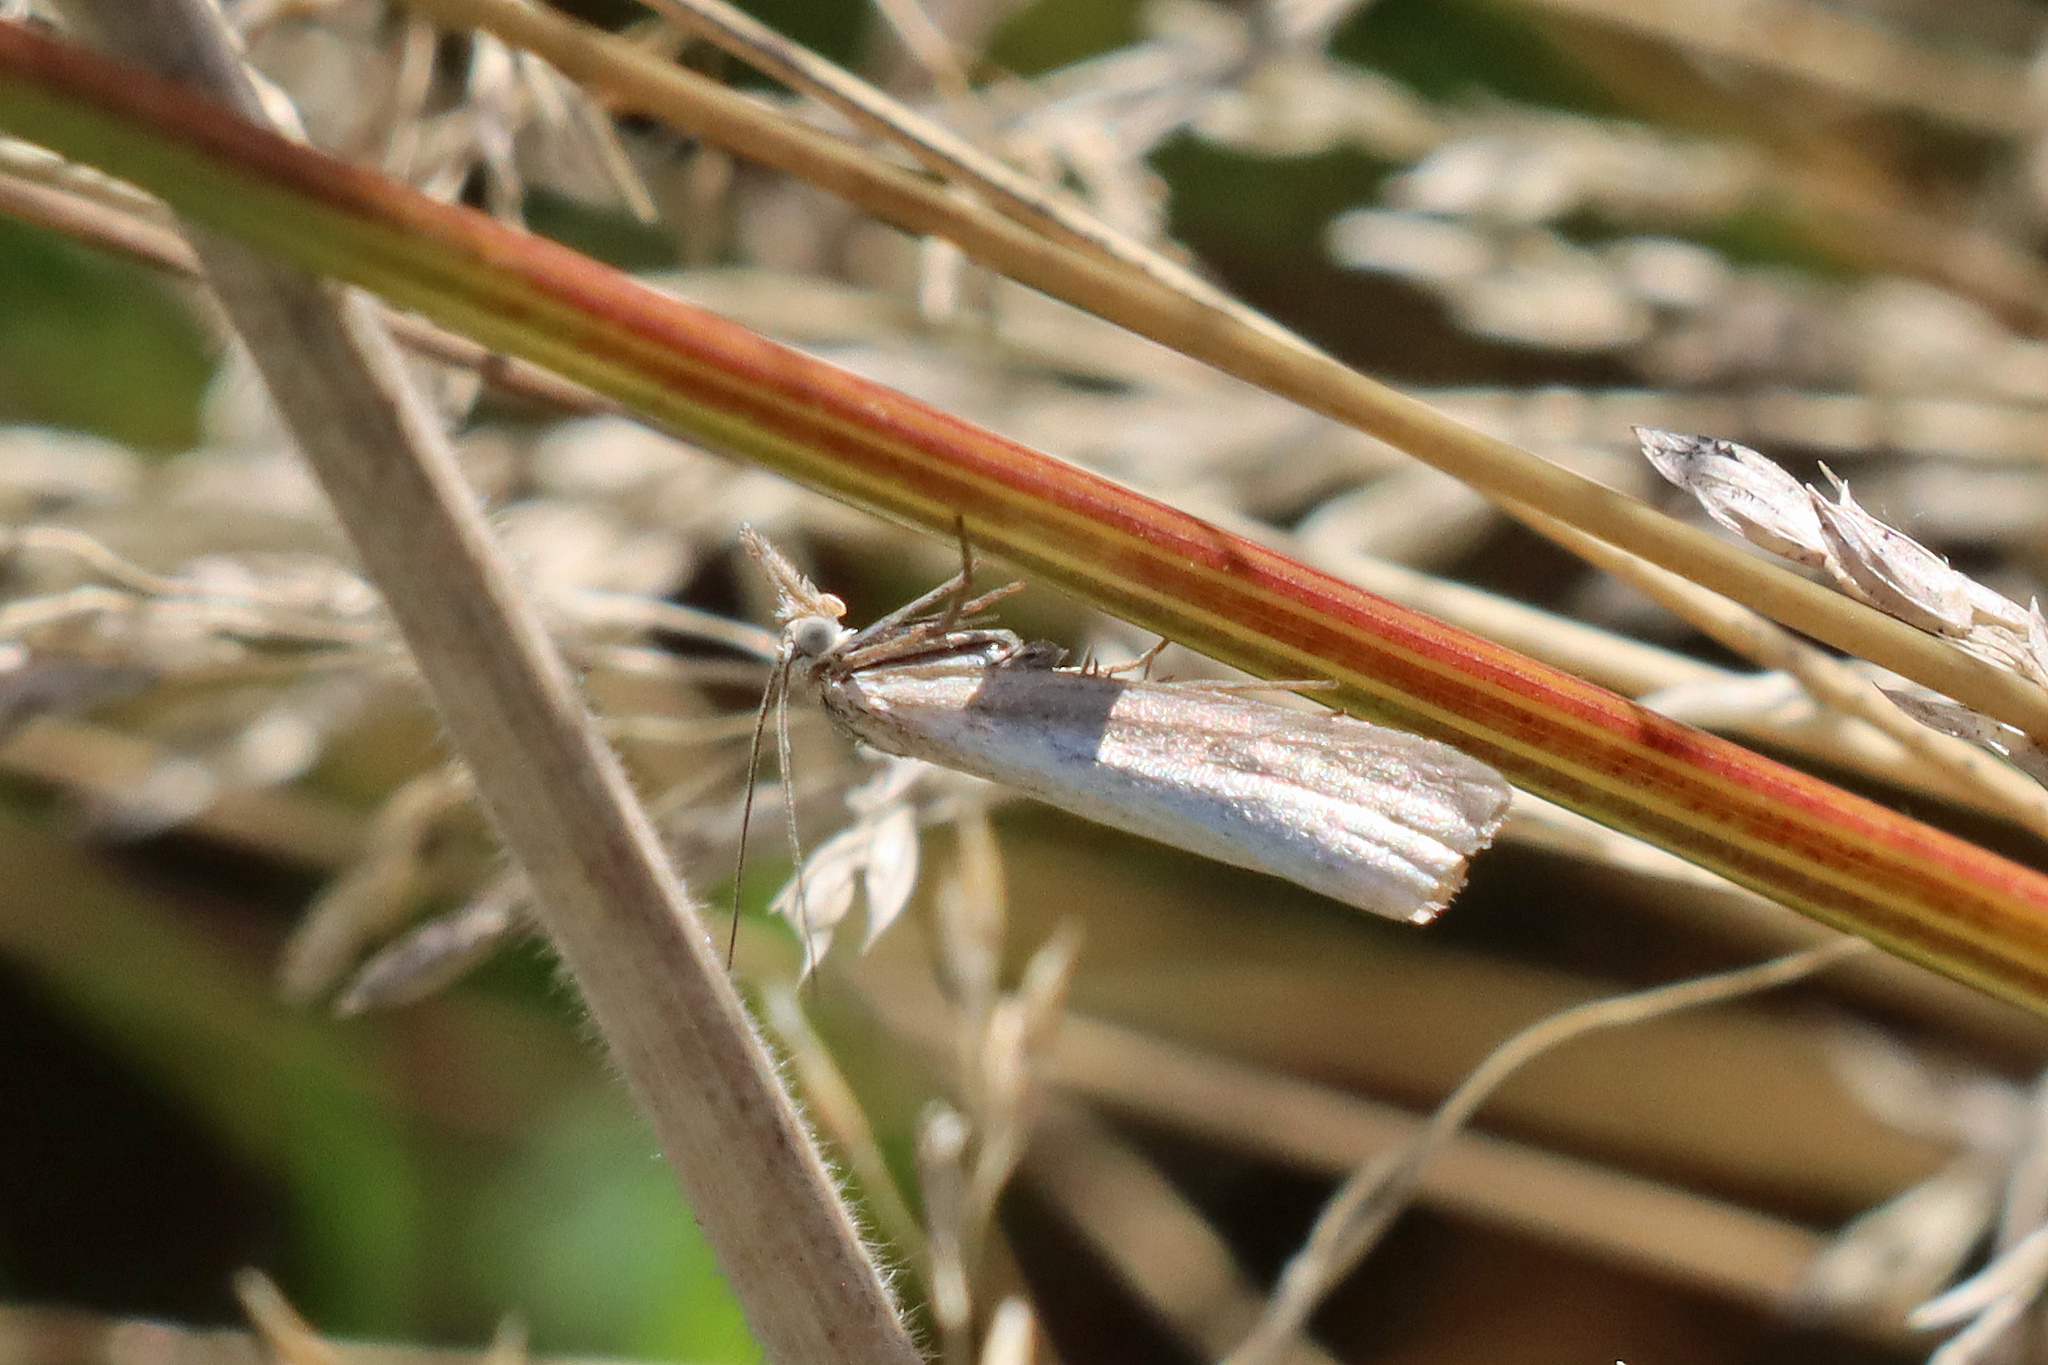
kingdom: Animalia
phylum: Arthropoda
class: Insecta
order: Lepidoptera
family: Crambidae
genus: Agriphila
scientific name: Agriphila straminella
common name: Straw grass-veneer
